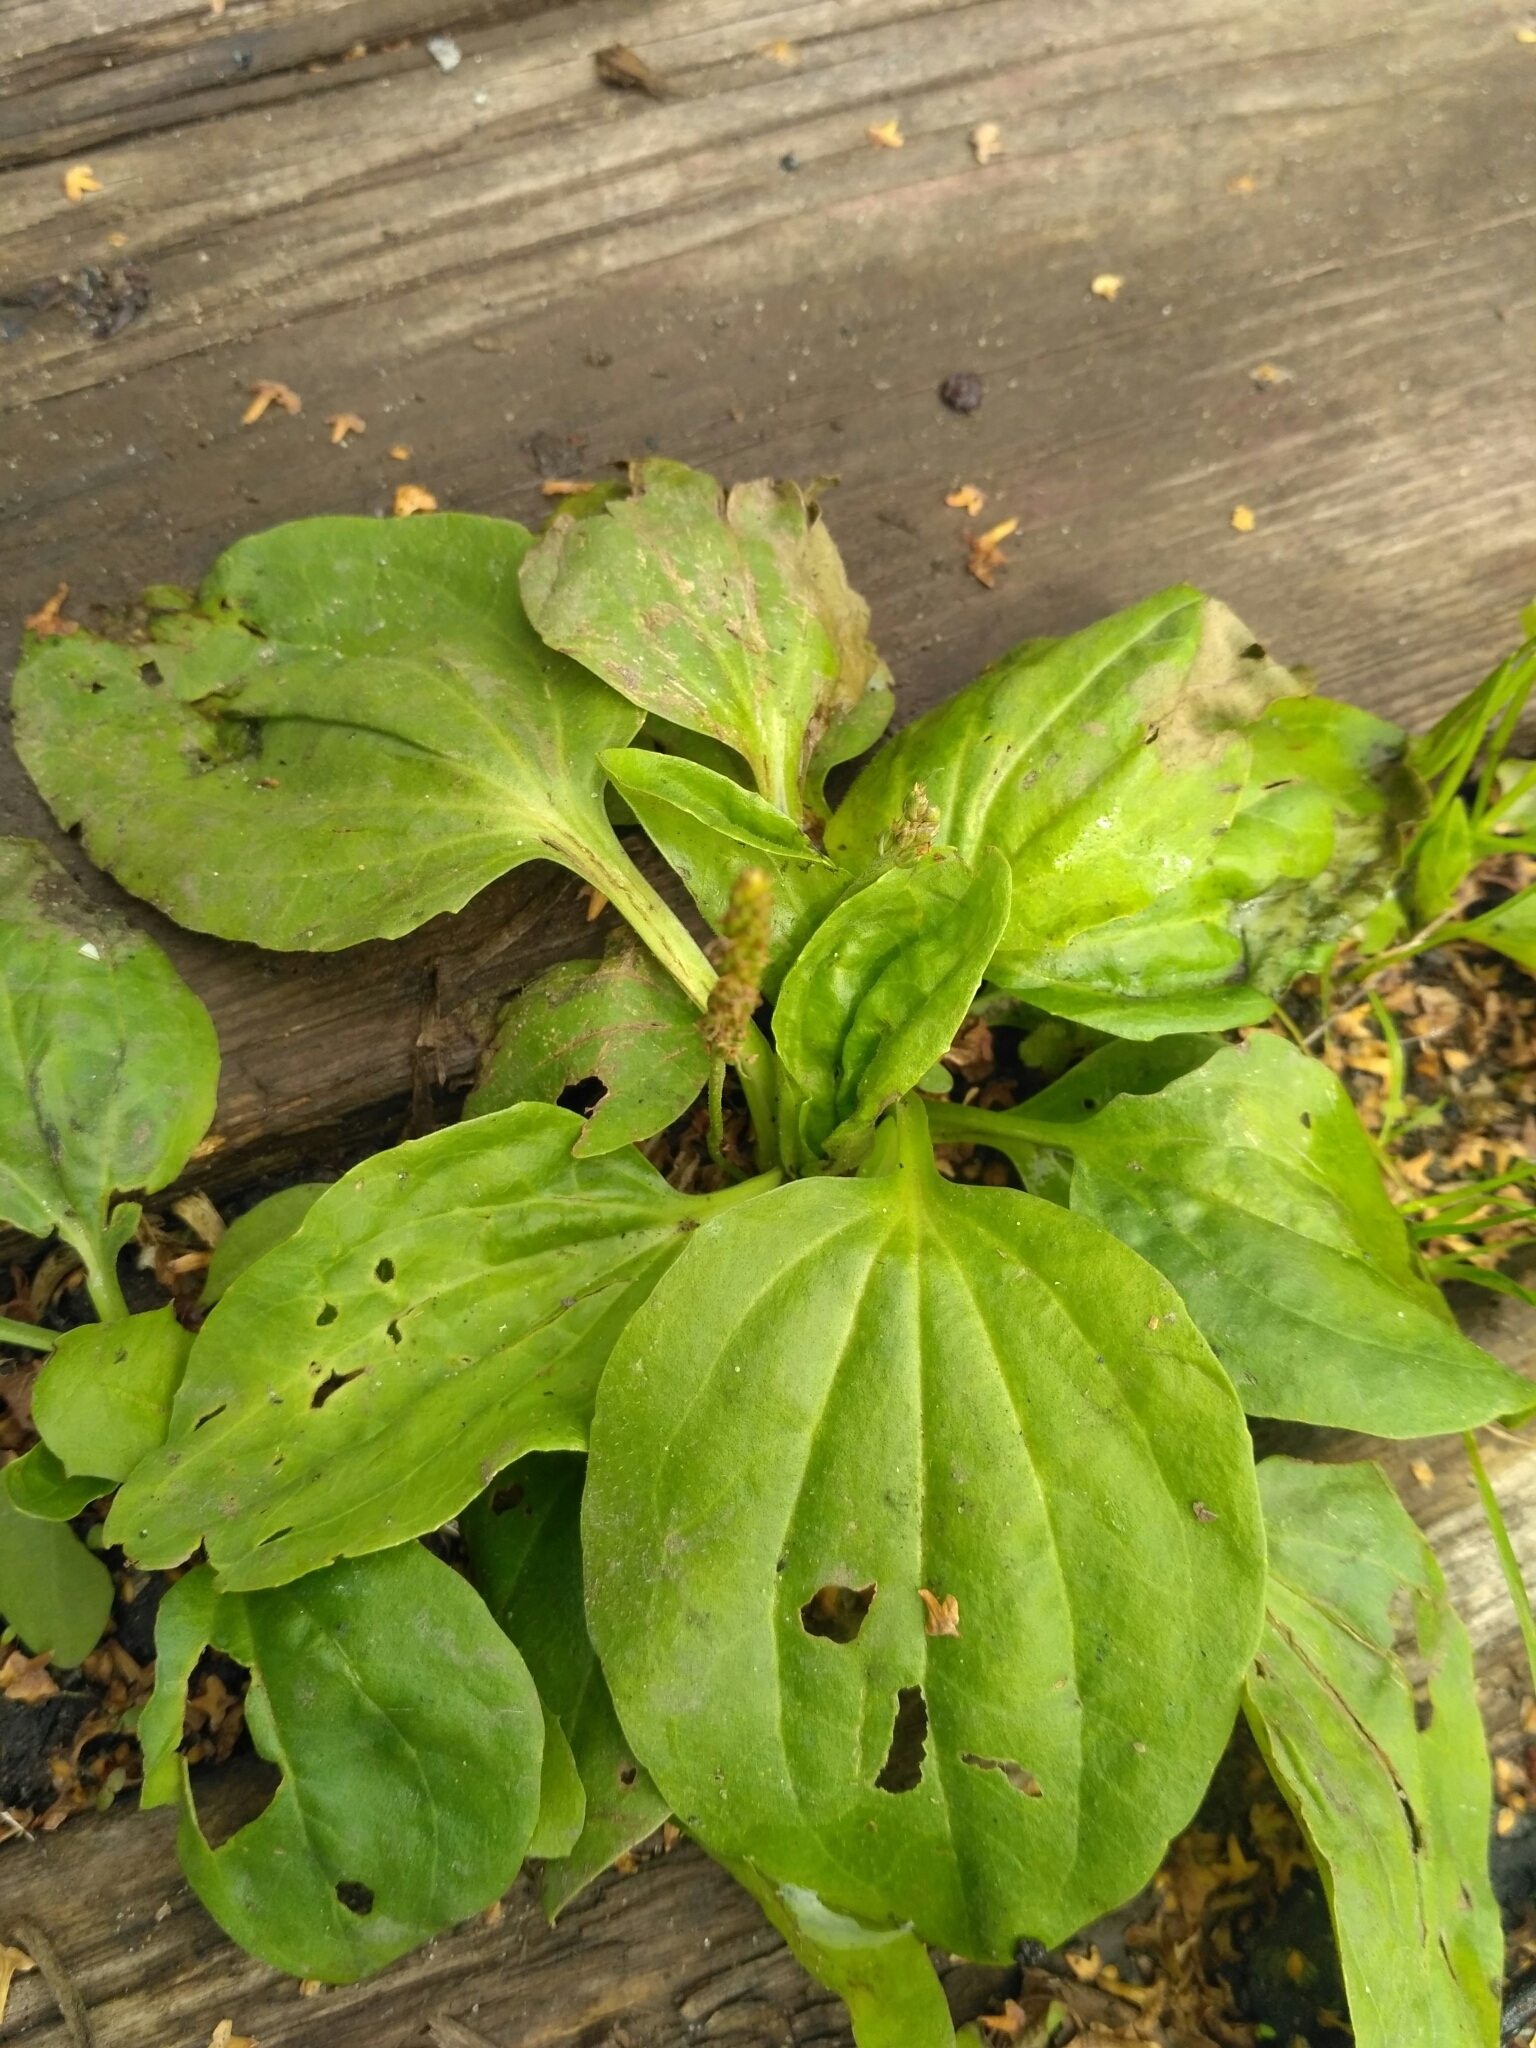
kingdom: Plantae
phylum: Tracheophyta
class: Magnoliopsida
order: Lamiales
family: Plantaginaceae
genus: Plantago
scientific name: Plantago major
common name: Common plantain
